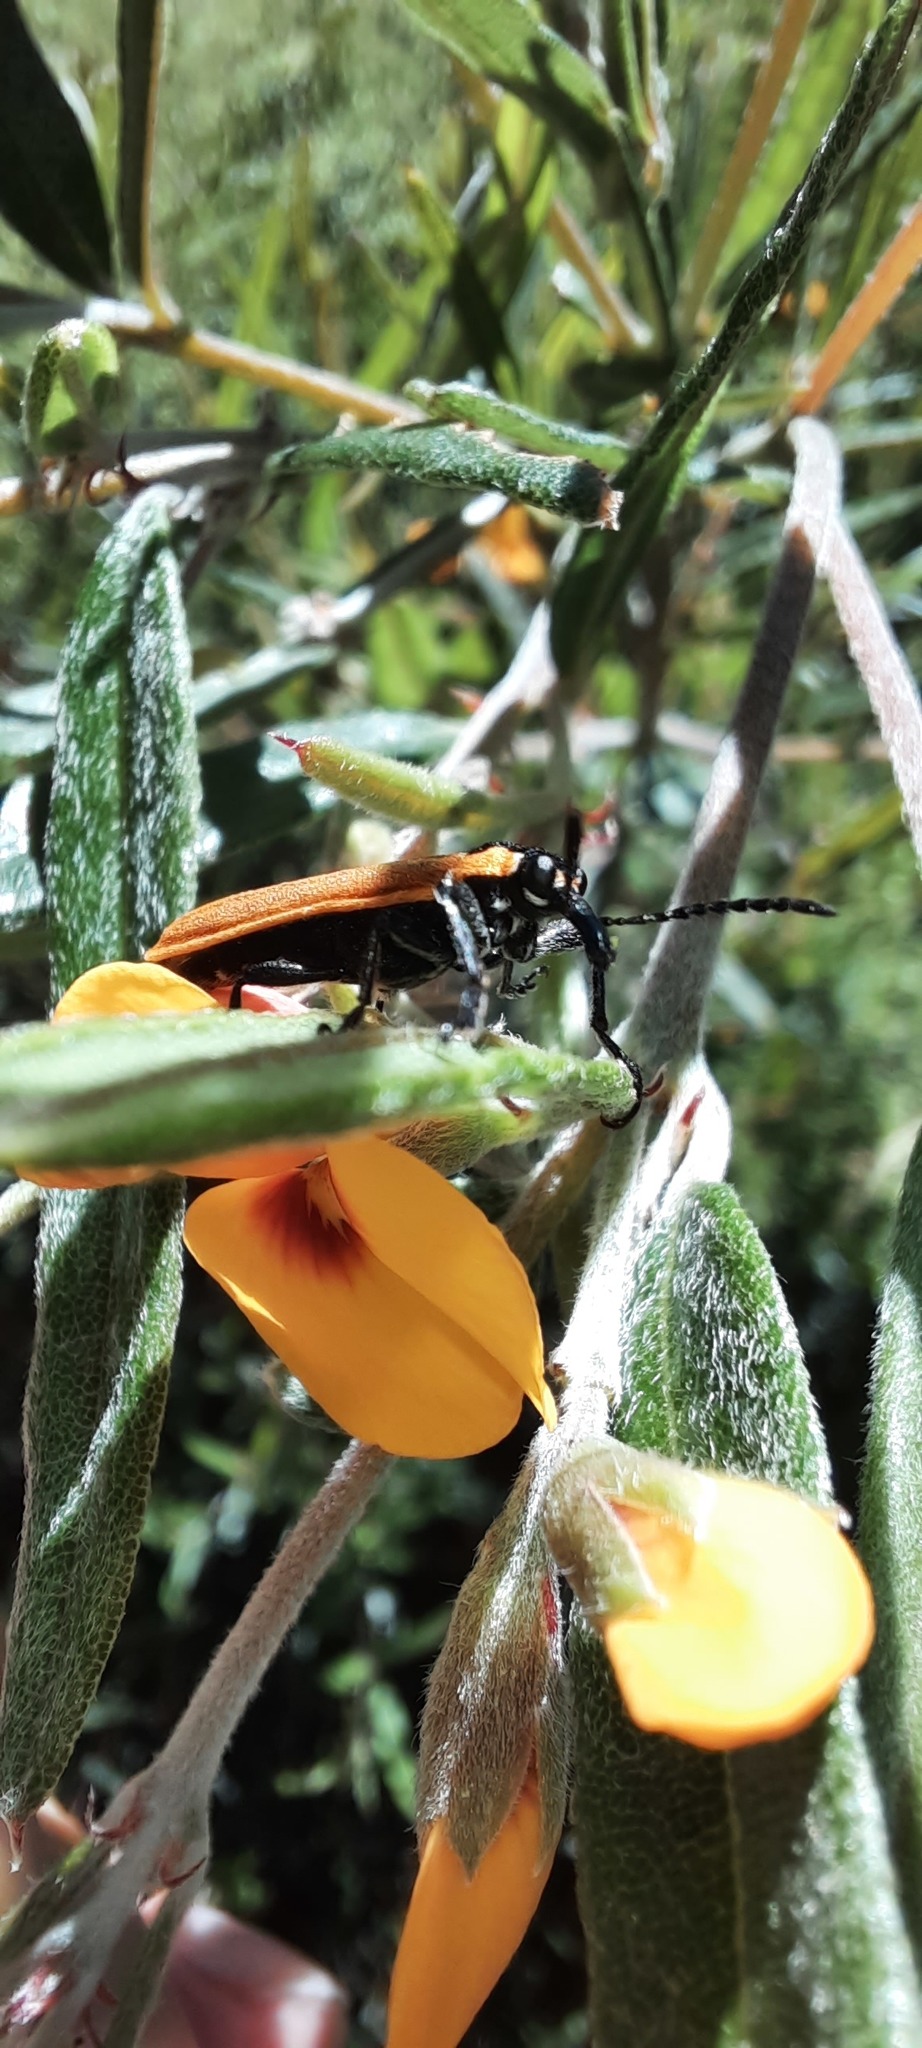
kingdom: Animalia
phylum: Arthropoda
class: Insecta
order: Coleoptera
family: Belidae
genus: Rhinotia
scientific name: Rhinotia haemoptera
